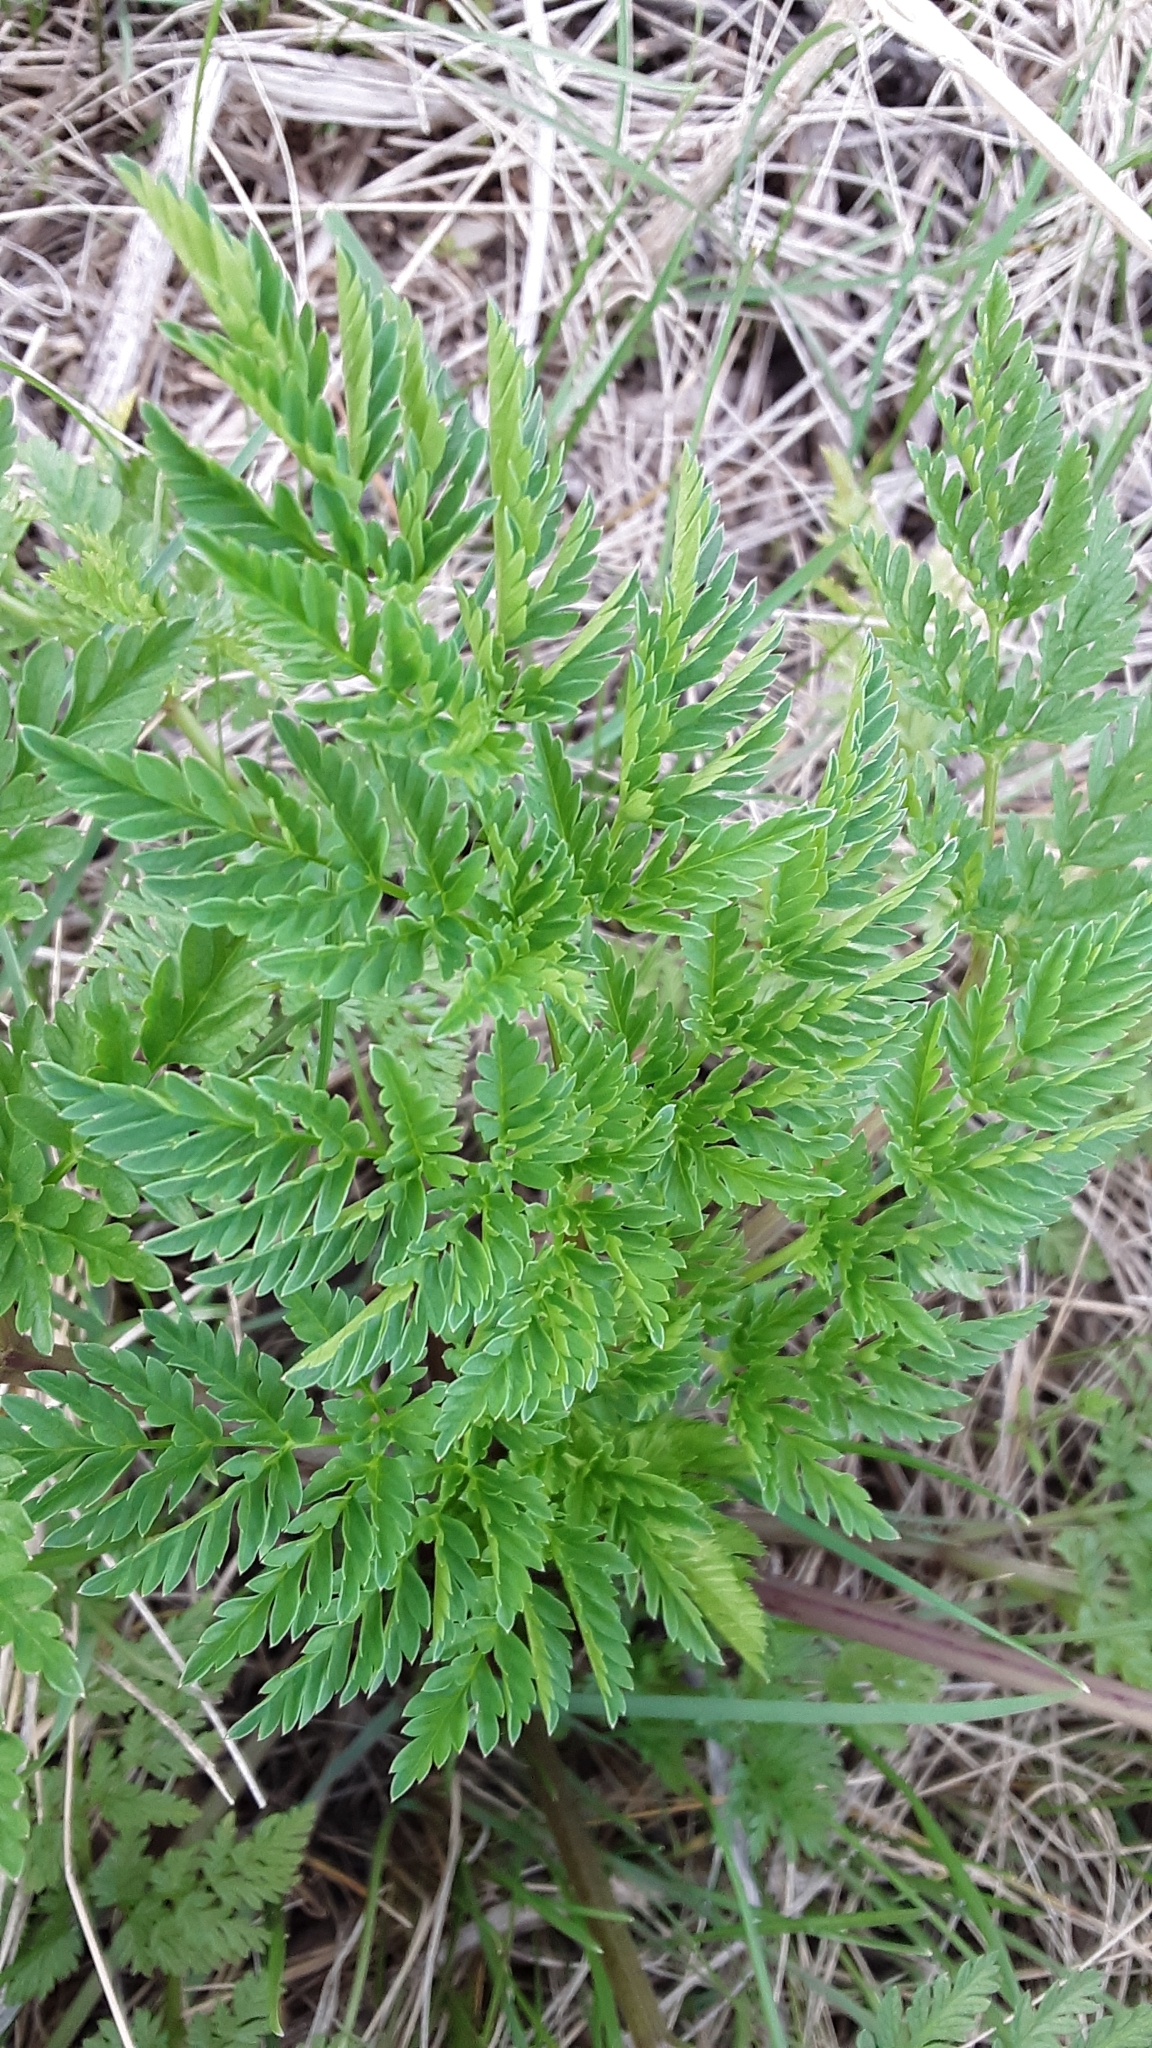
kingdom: Plantae
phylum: Tracheophyta
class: Magnoliopsida
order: Apiales
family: Apiaceae
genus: Conium
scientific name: Conium maculatum
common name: Hemlock
